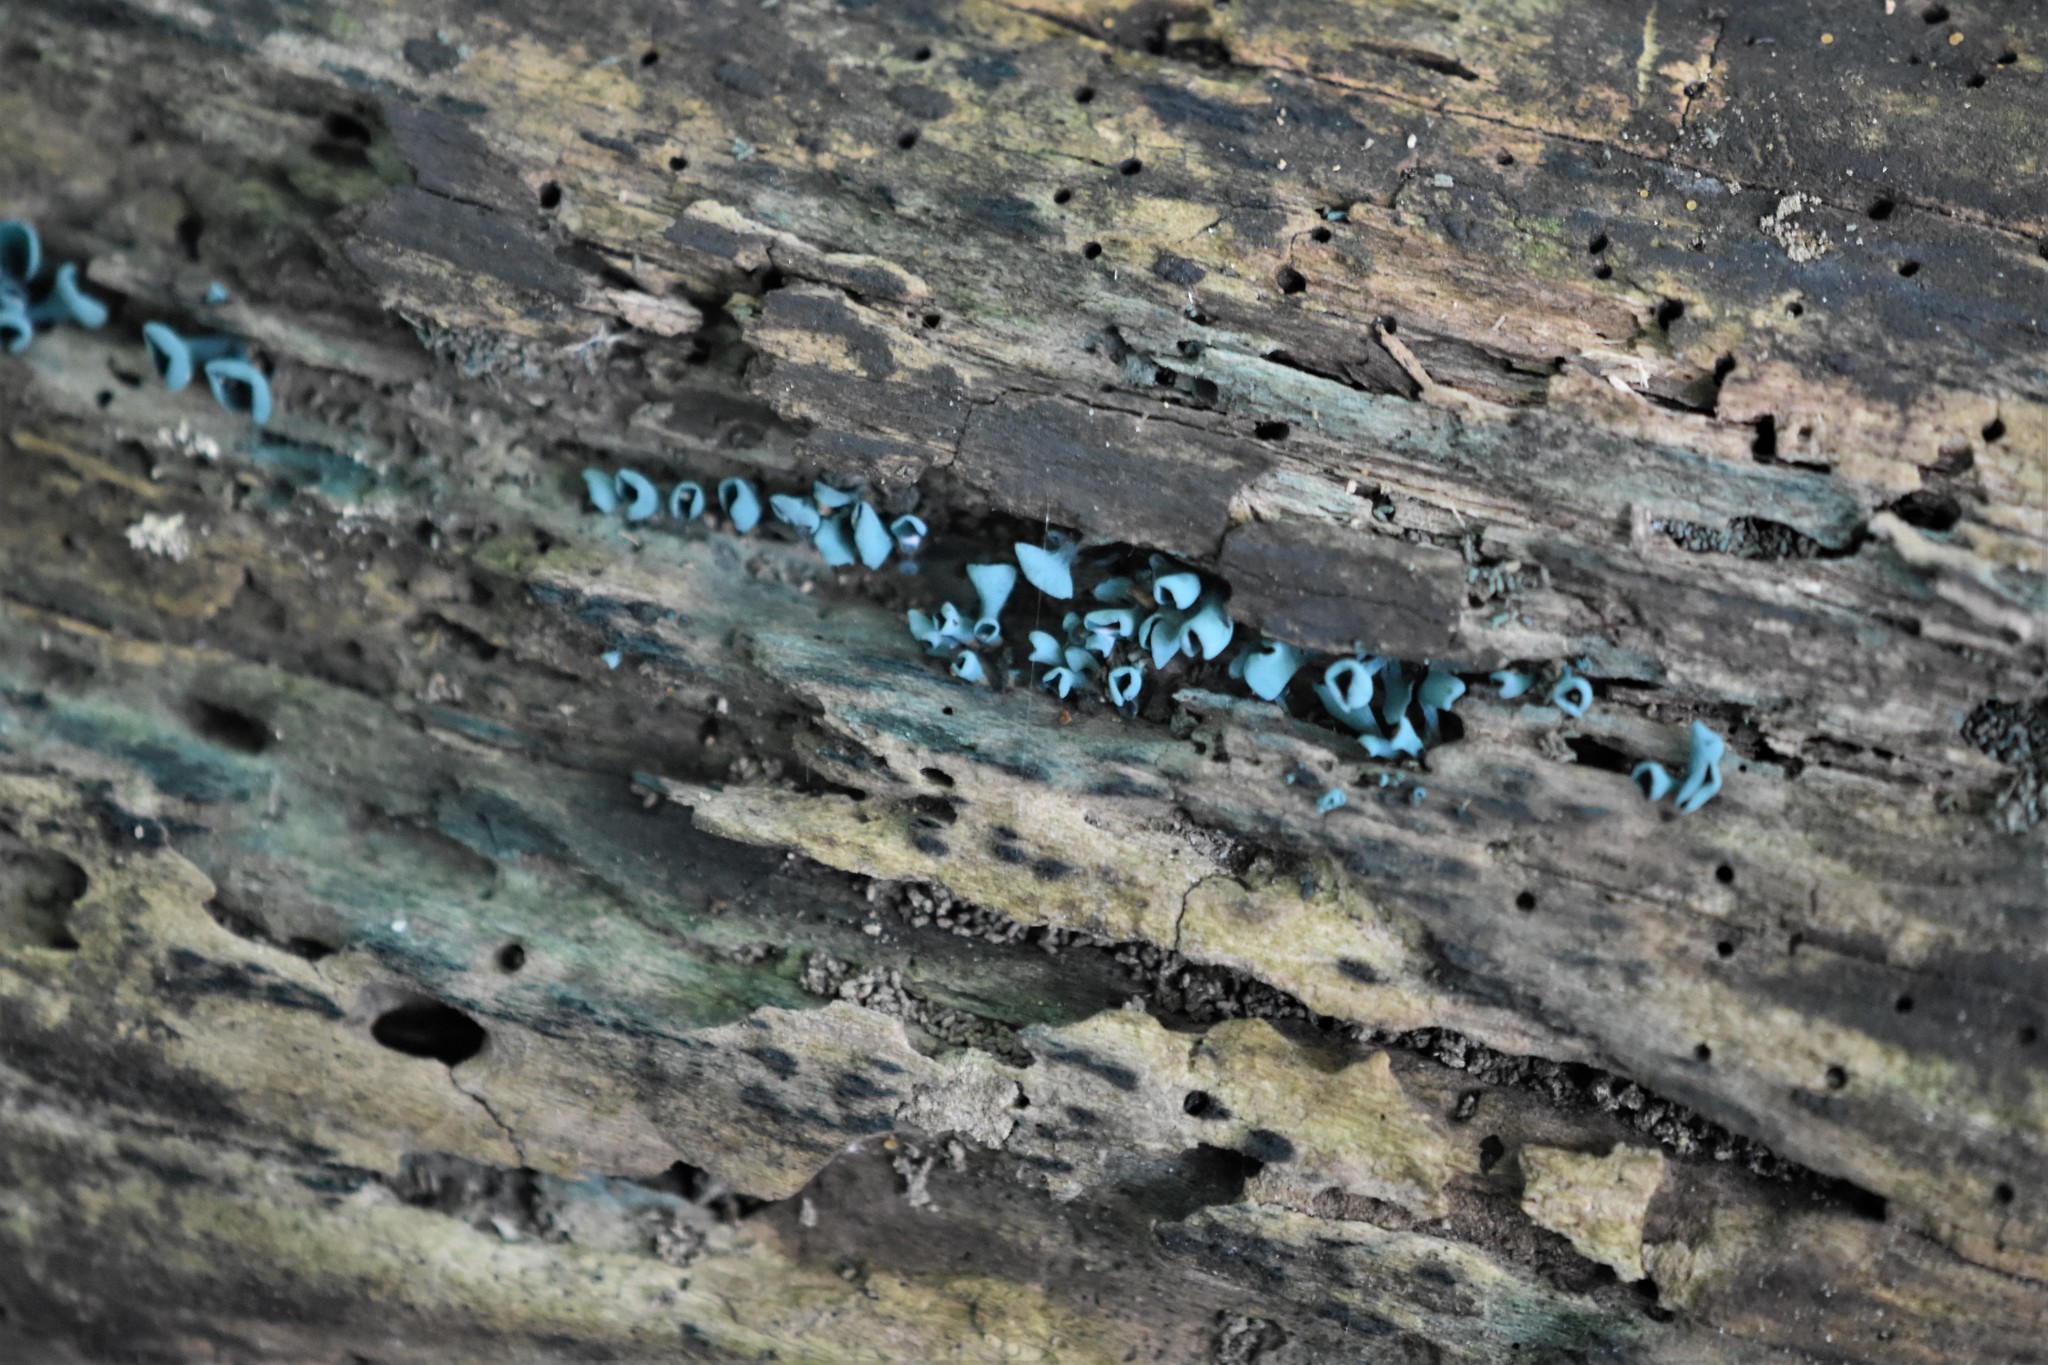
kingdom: Fungi
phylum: Ascomycota
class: Leotiomycetes
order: Helotiales
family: Chlorociboriaceae
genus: Chlorociboria
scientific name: Chlorociboria aeruginascens
